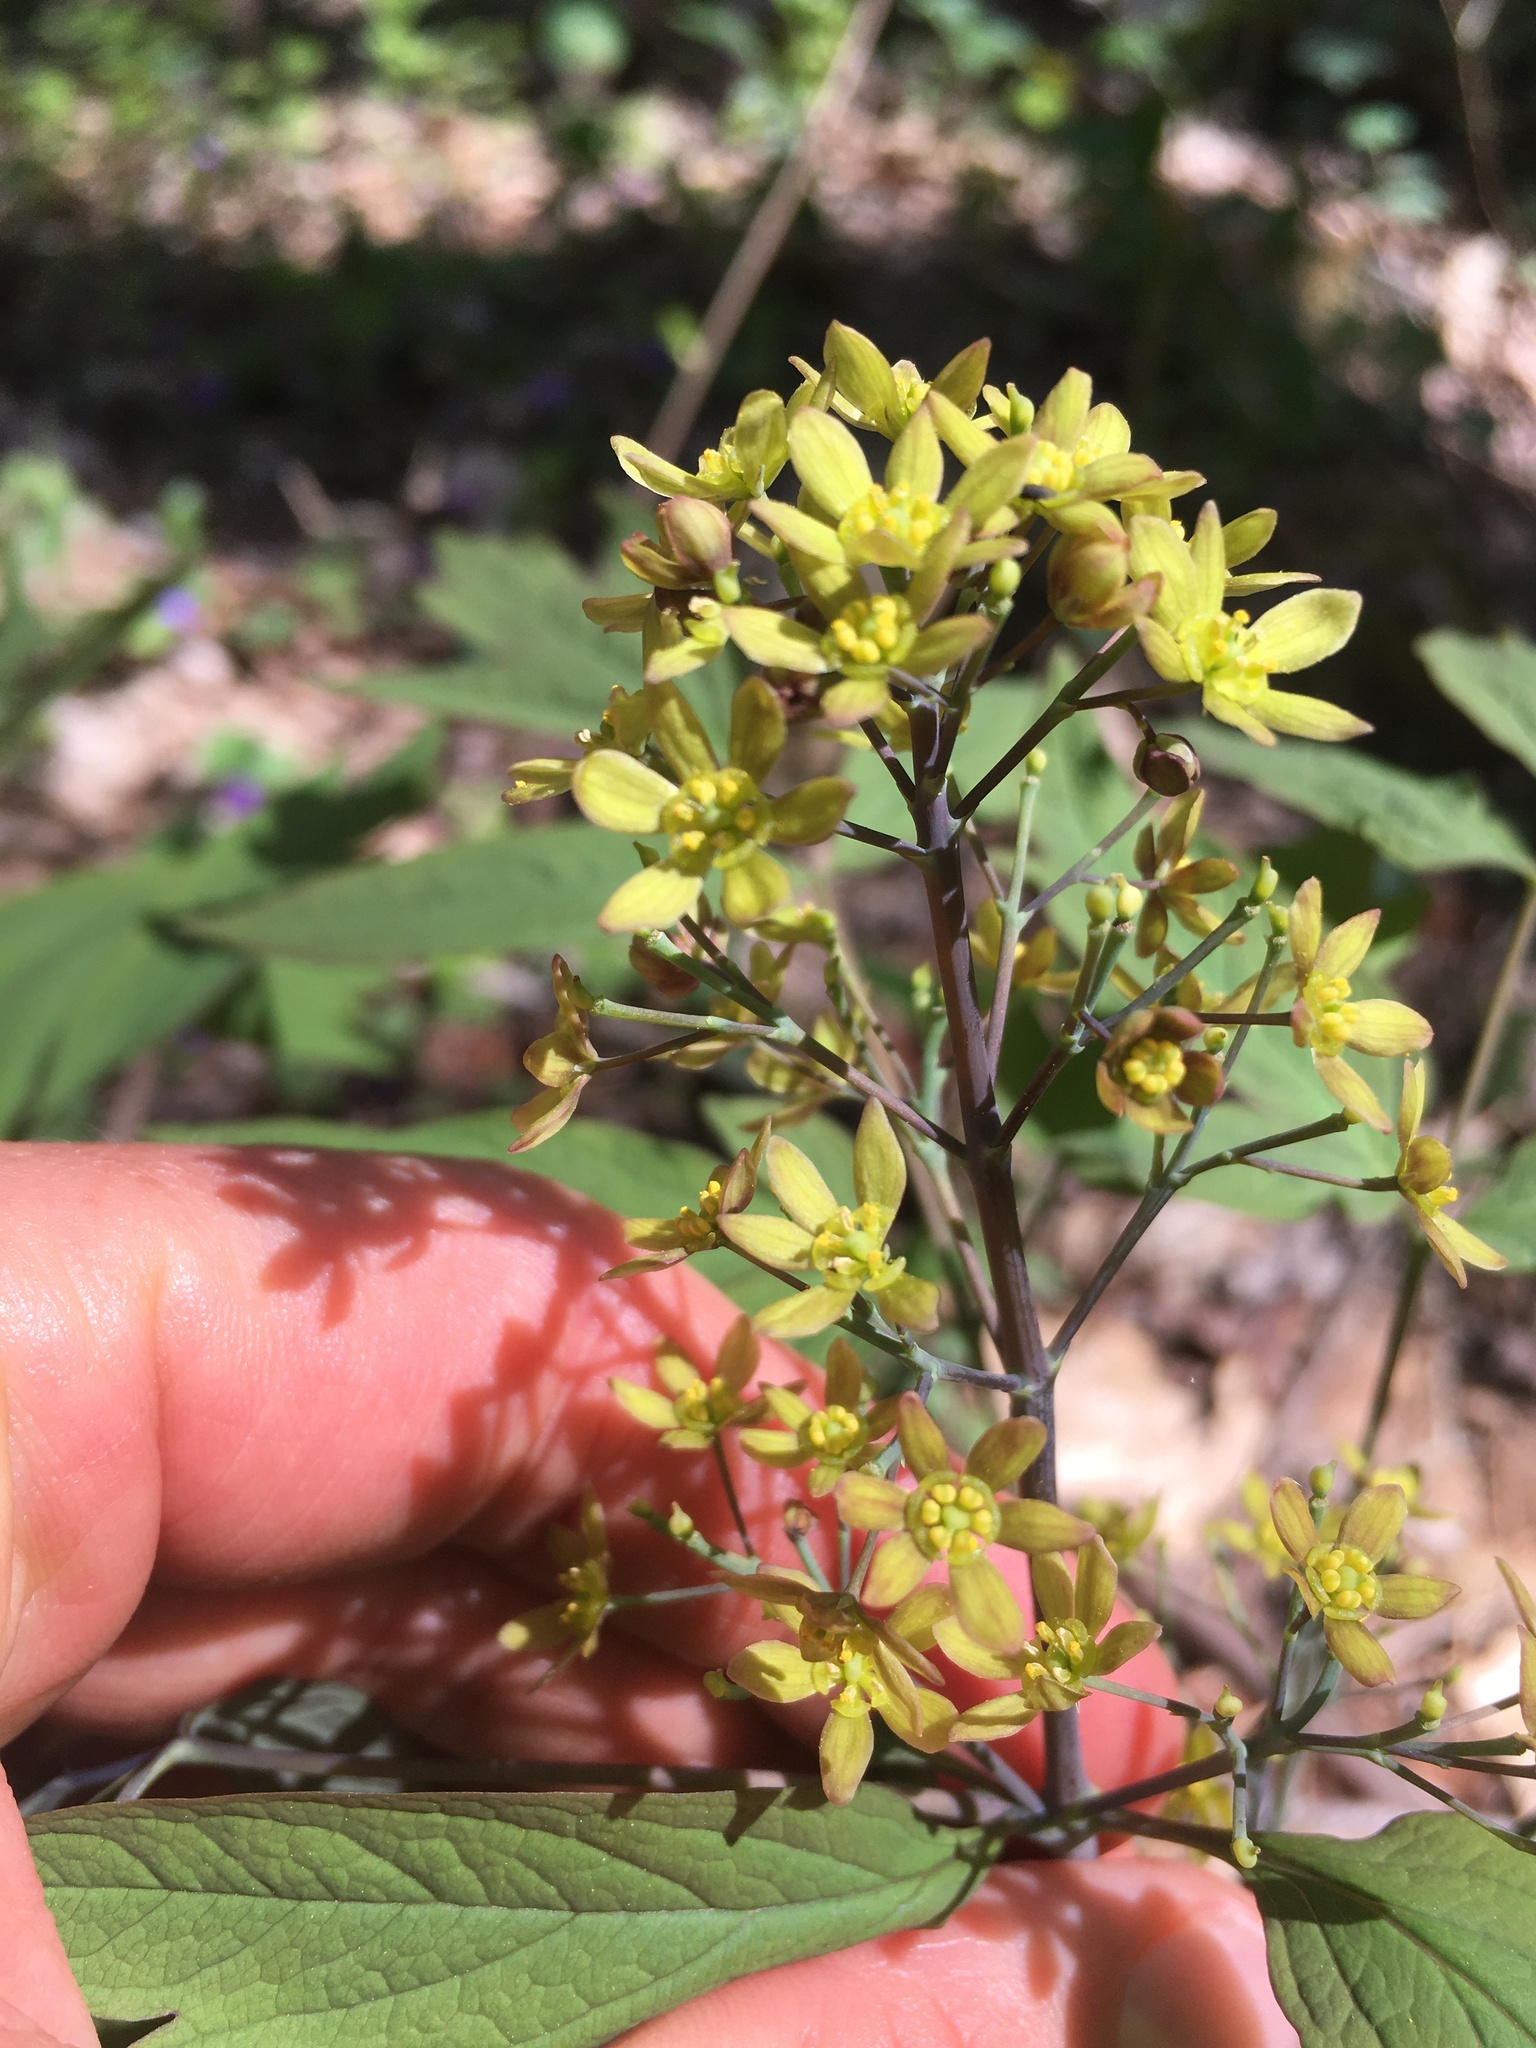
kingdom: Plantae
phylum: Tracheophyta
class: Magnoliopsida
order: Ranunculales
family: Berberidaceae
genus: Caulophyllum
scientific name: Caulophyllum thalictroides
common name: Blue cohosh
